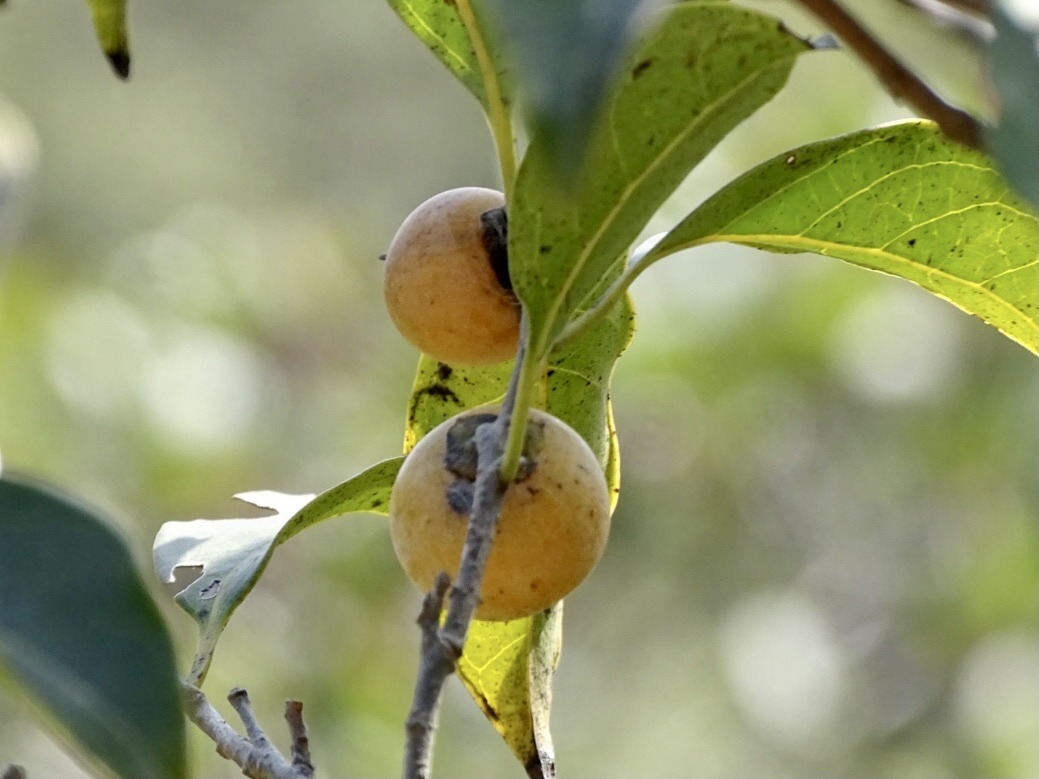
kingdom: Plantae
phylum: Tracheophyta
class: Magnoliopsida
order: Ericales
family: Ebenaceae
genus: Diospyros
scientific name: Diospyros morrisiana
